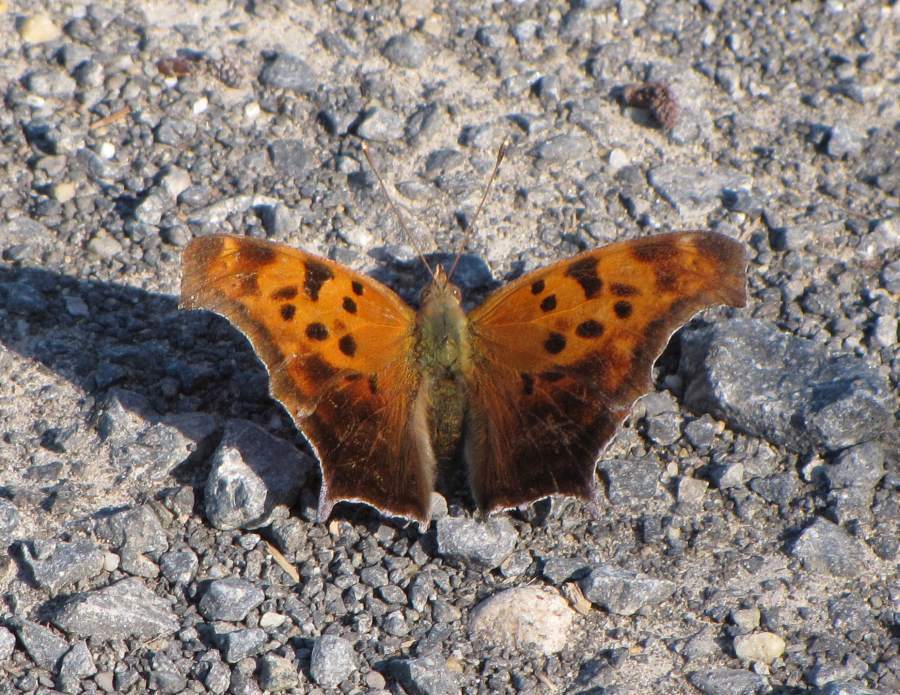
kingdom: Animalia
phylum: Arthropoda
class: Insecta
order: Lepidoptera
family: Nymphalidae
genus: Polygonia
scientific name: Polygonia interrogationis
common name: Question mark
